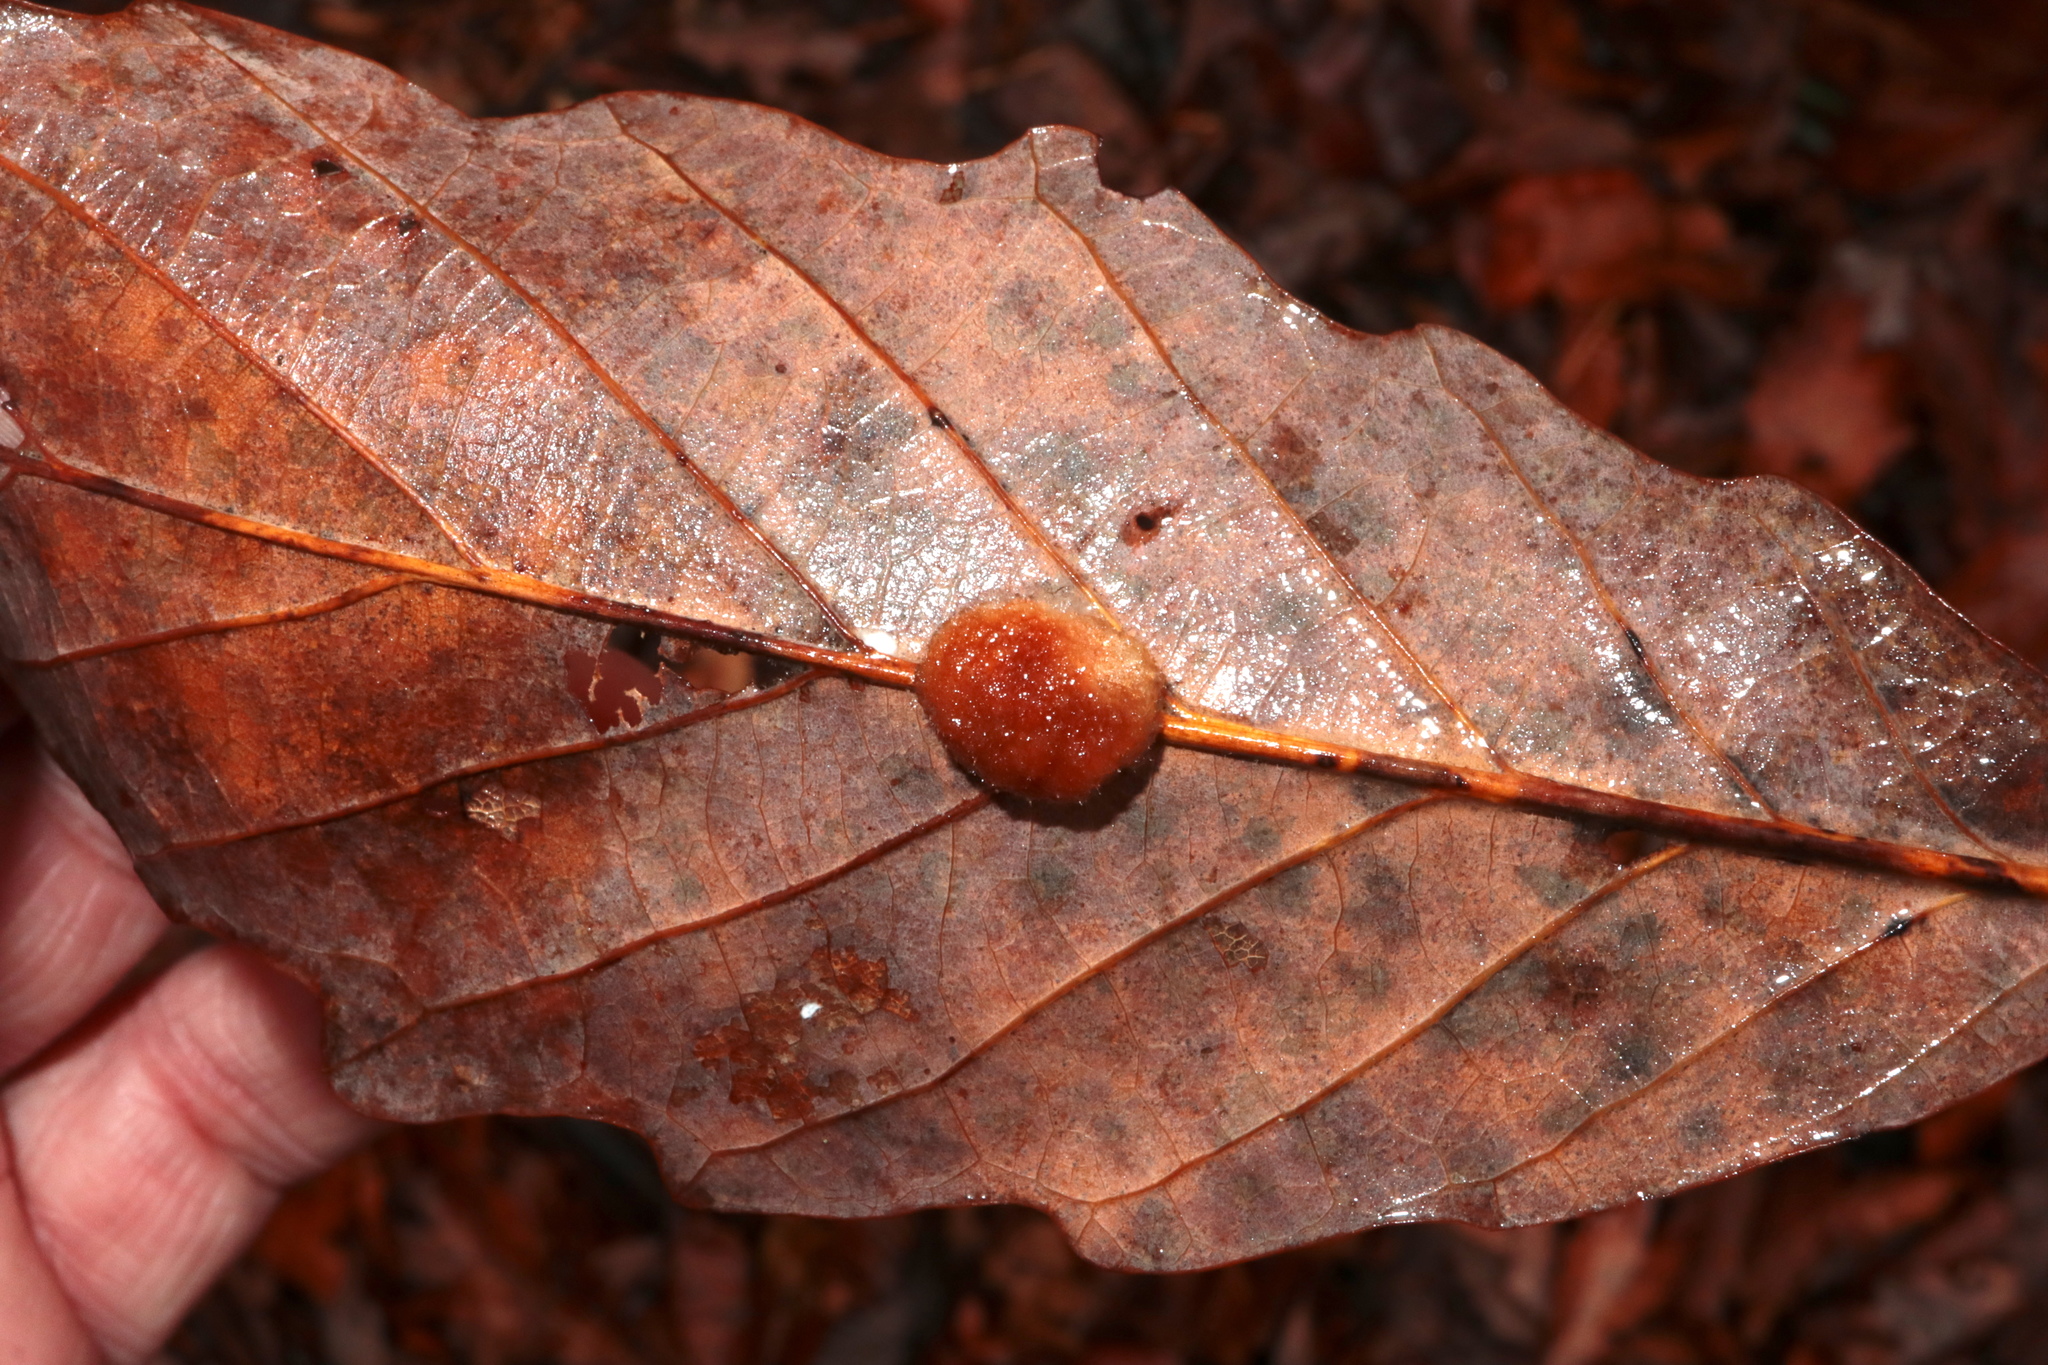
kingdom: Animalia
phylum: Arthropoda
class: Insecta
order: Hymenoptera
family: Cynipidae
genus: Andricus
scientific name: Andricus quercusflocci
